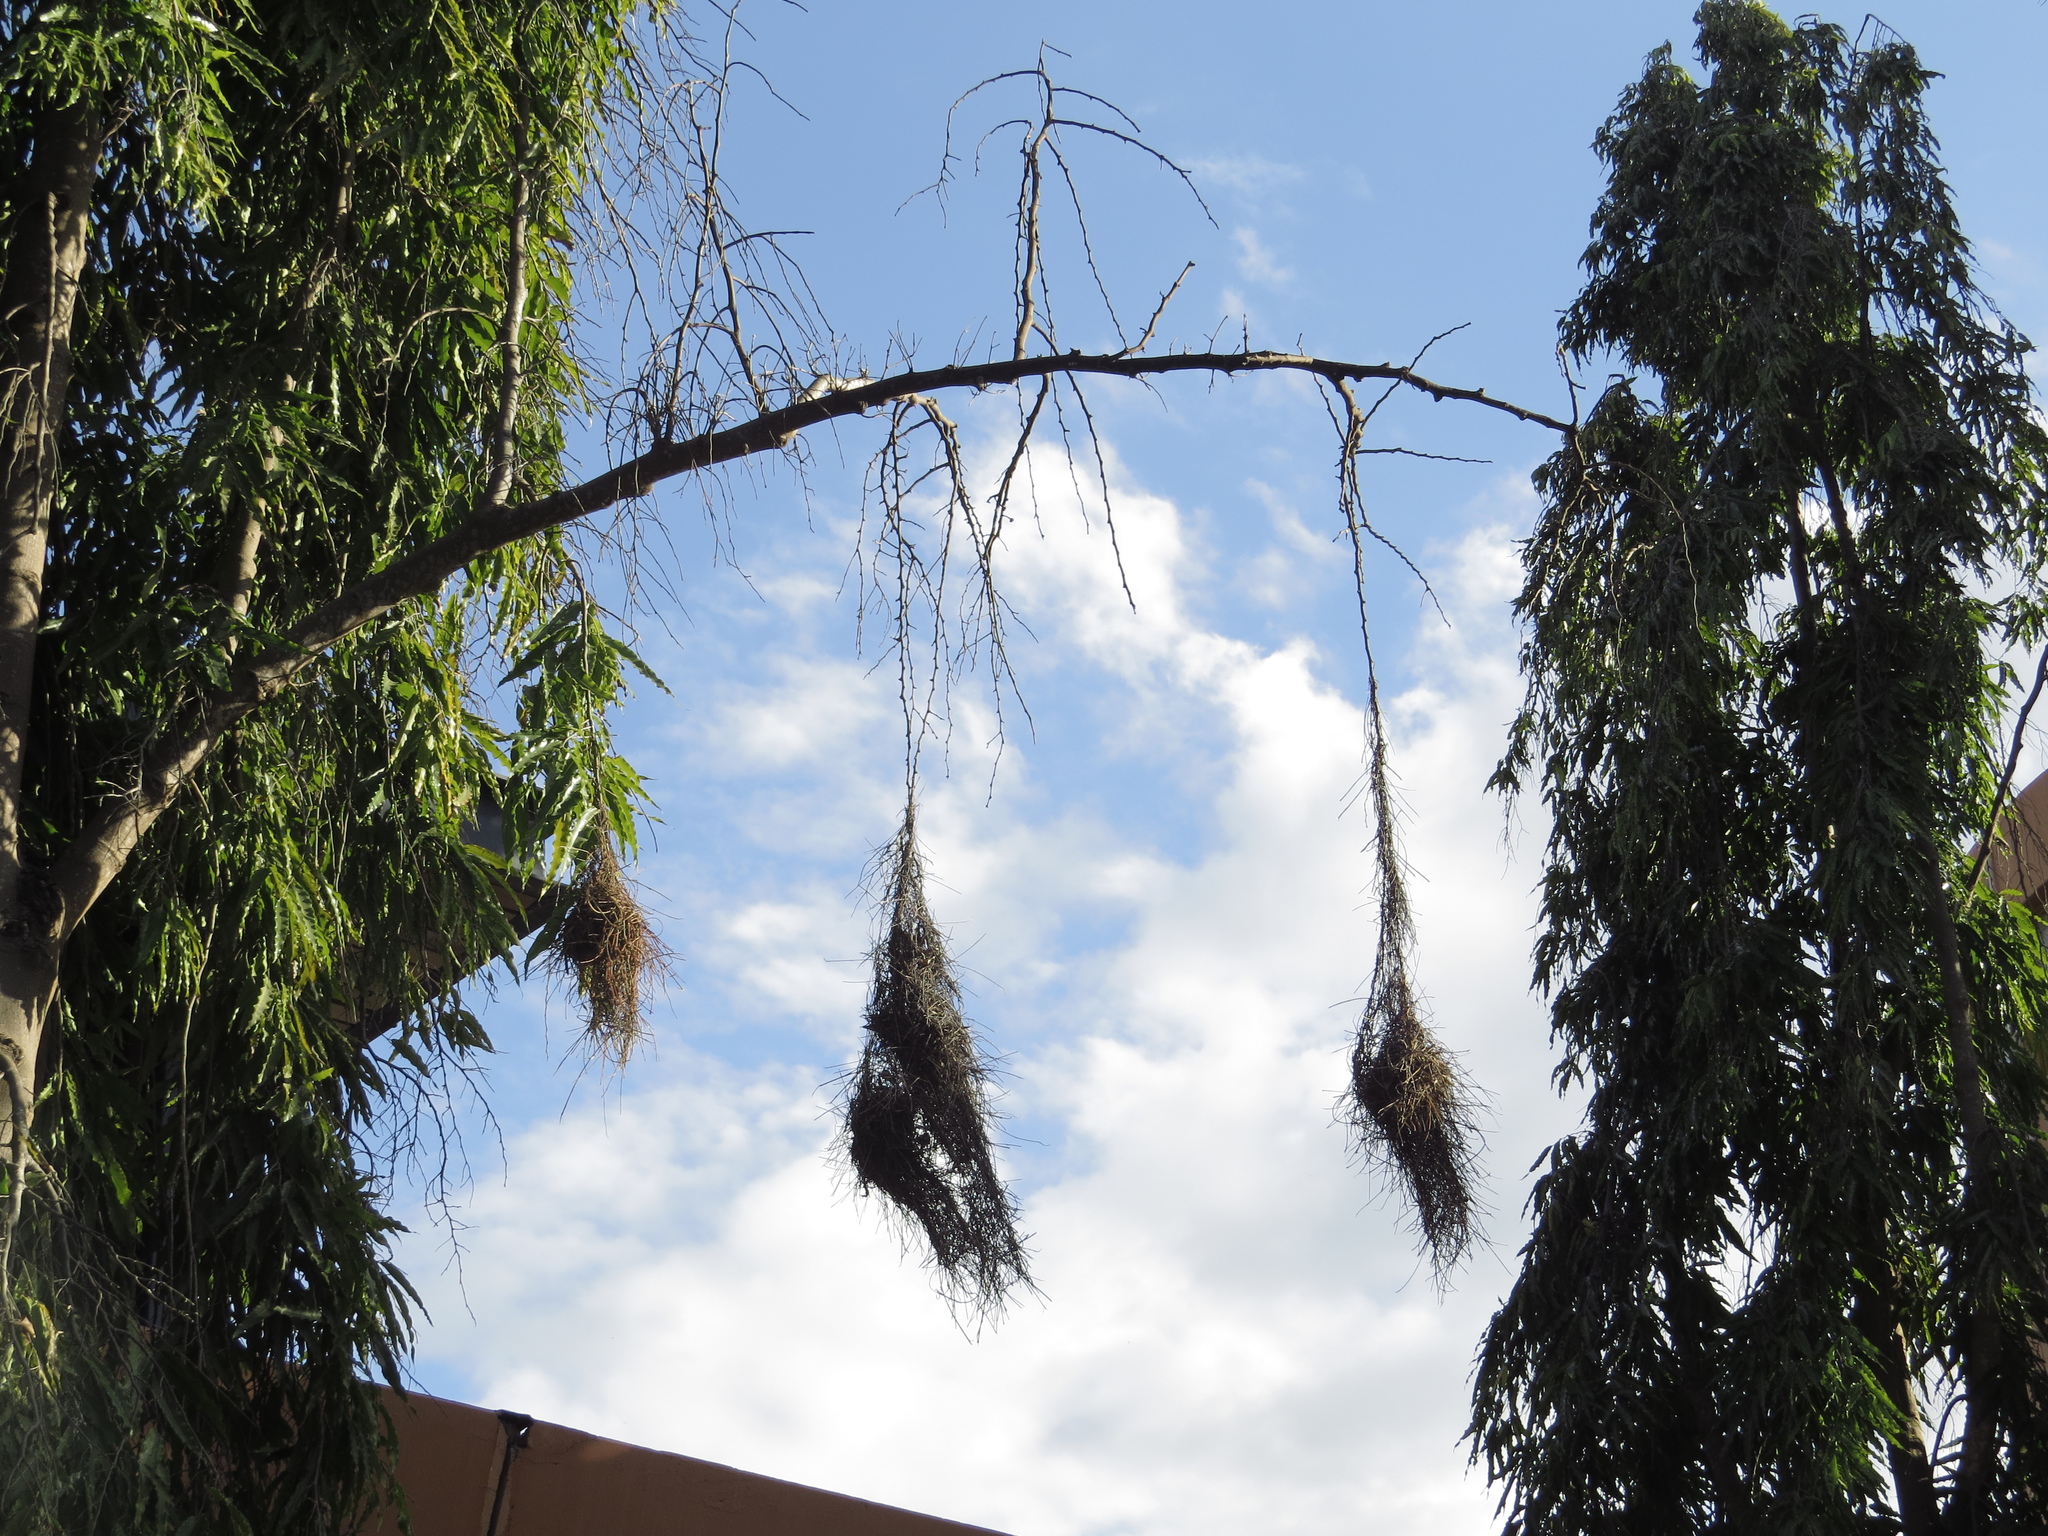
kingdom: Animalia
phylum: Chordata
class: Aves
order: Passeriformes
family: Ploceidae
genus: Ploceus
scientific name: Ploceus ocularis
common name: Spectacled weaver
